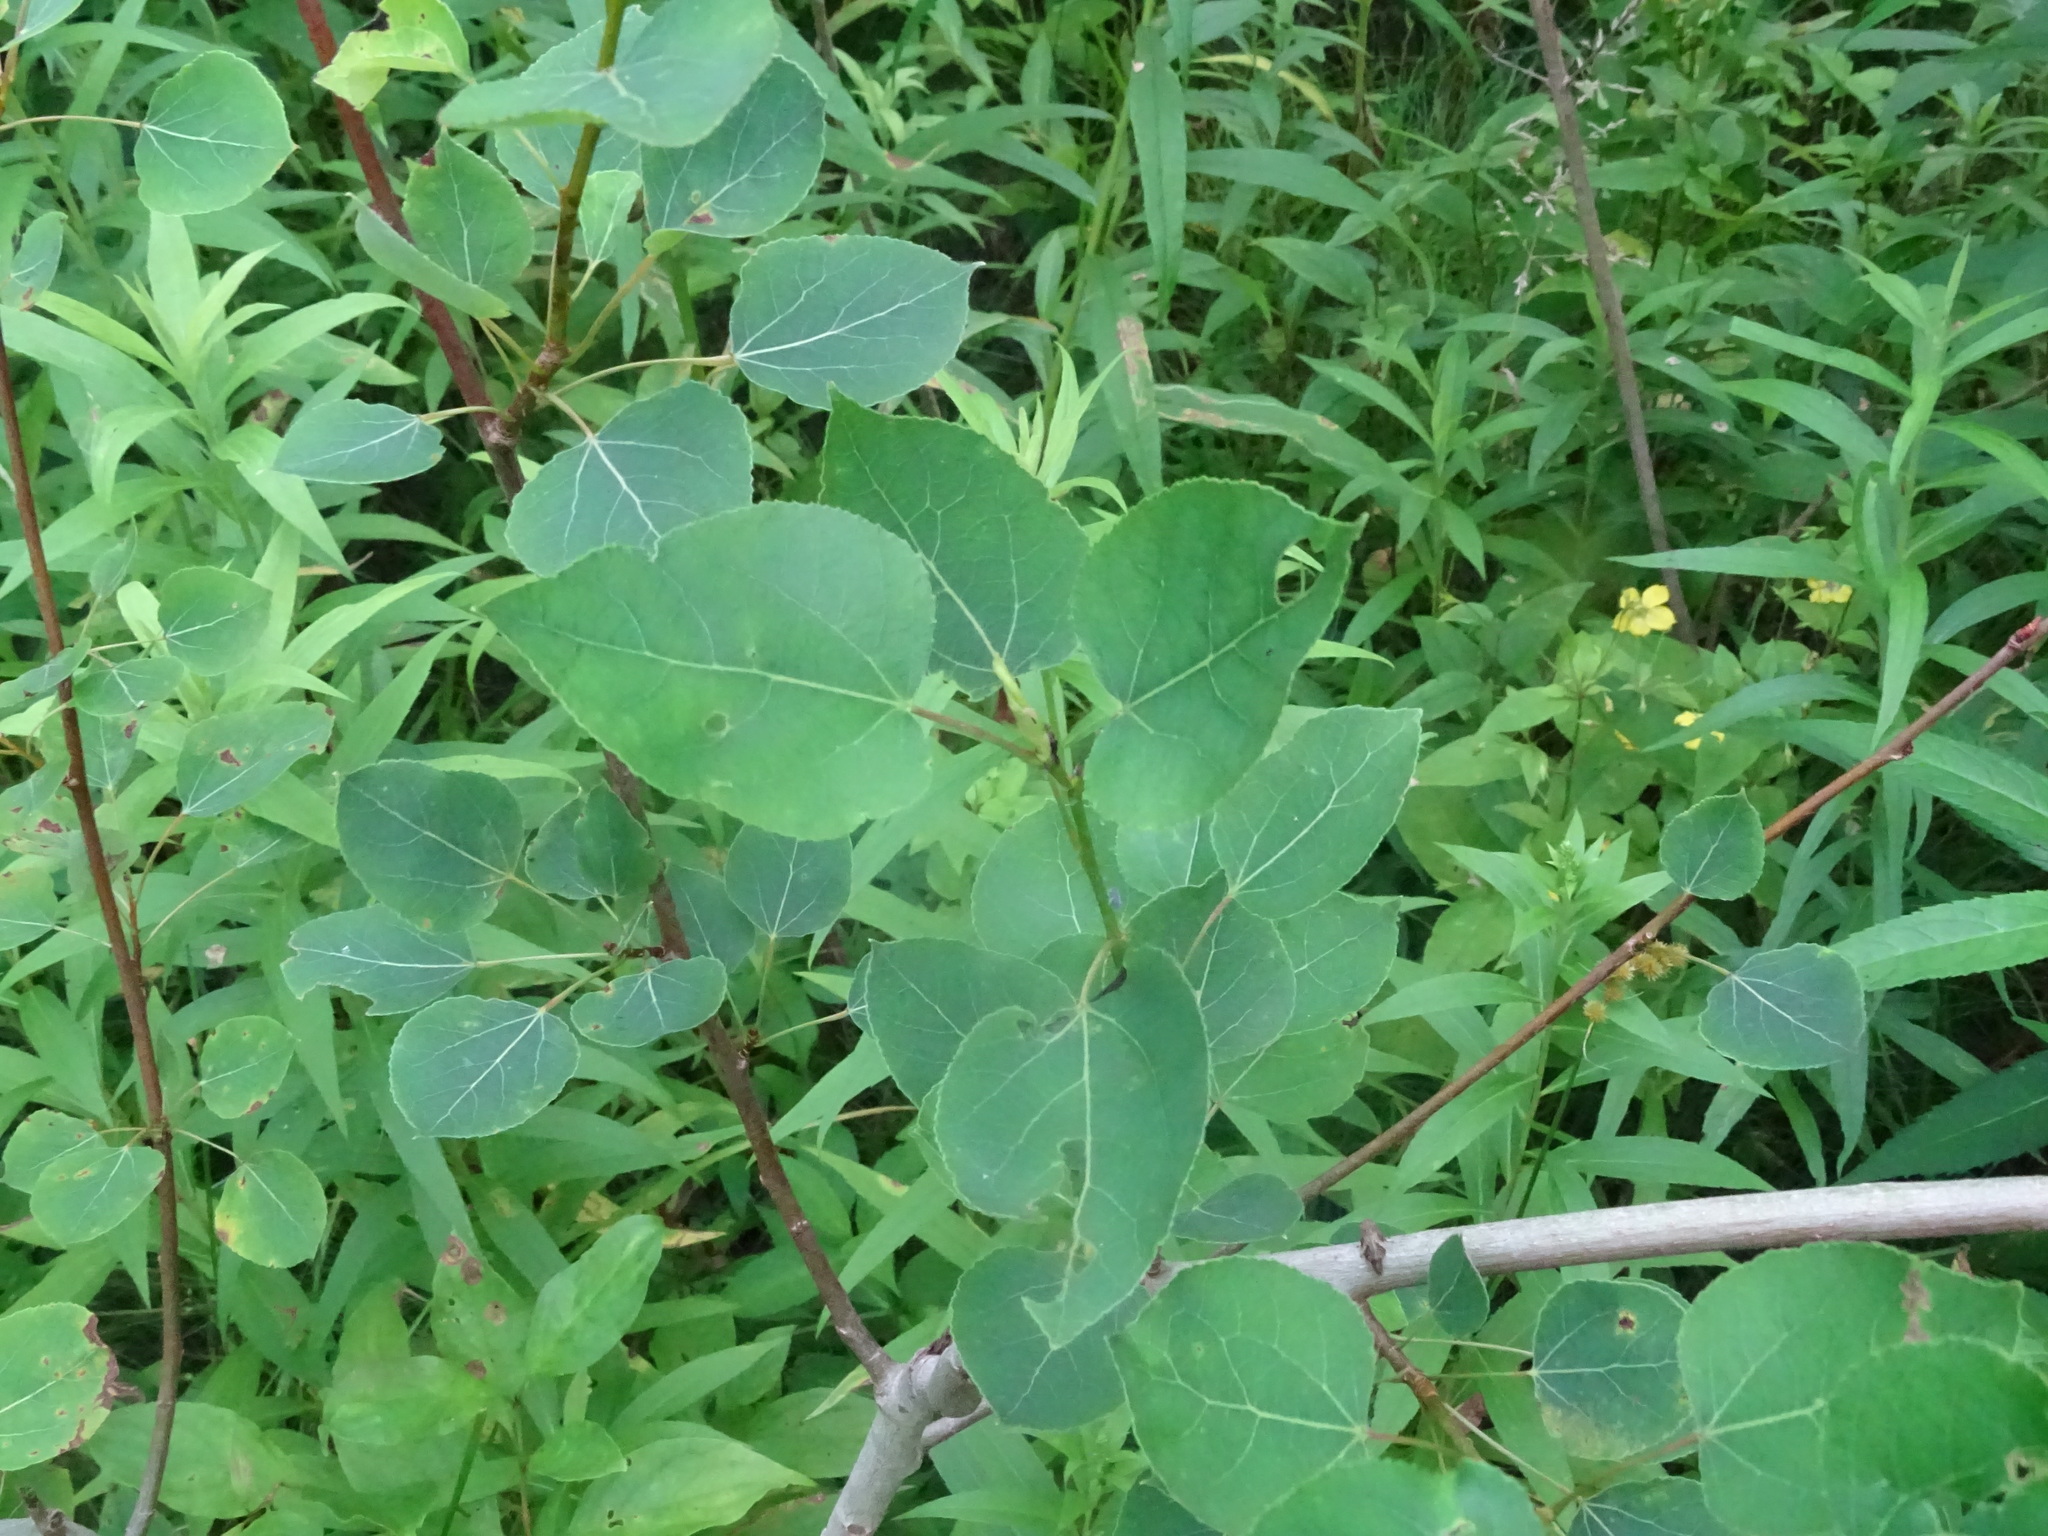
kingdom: Plantae
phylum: Tracheophyta
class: Magnoliopsida
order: Malpighiales
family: Salicaceae
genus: Populus
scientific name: Populus tremuloides
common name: Quaking aspen
